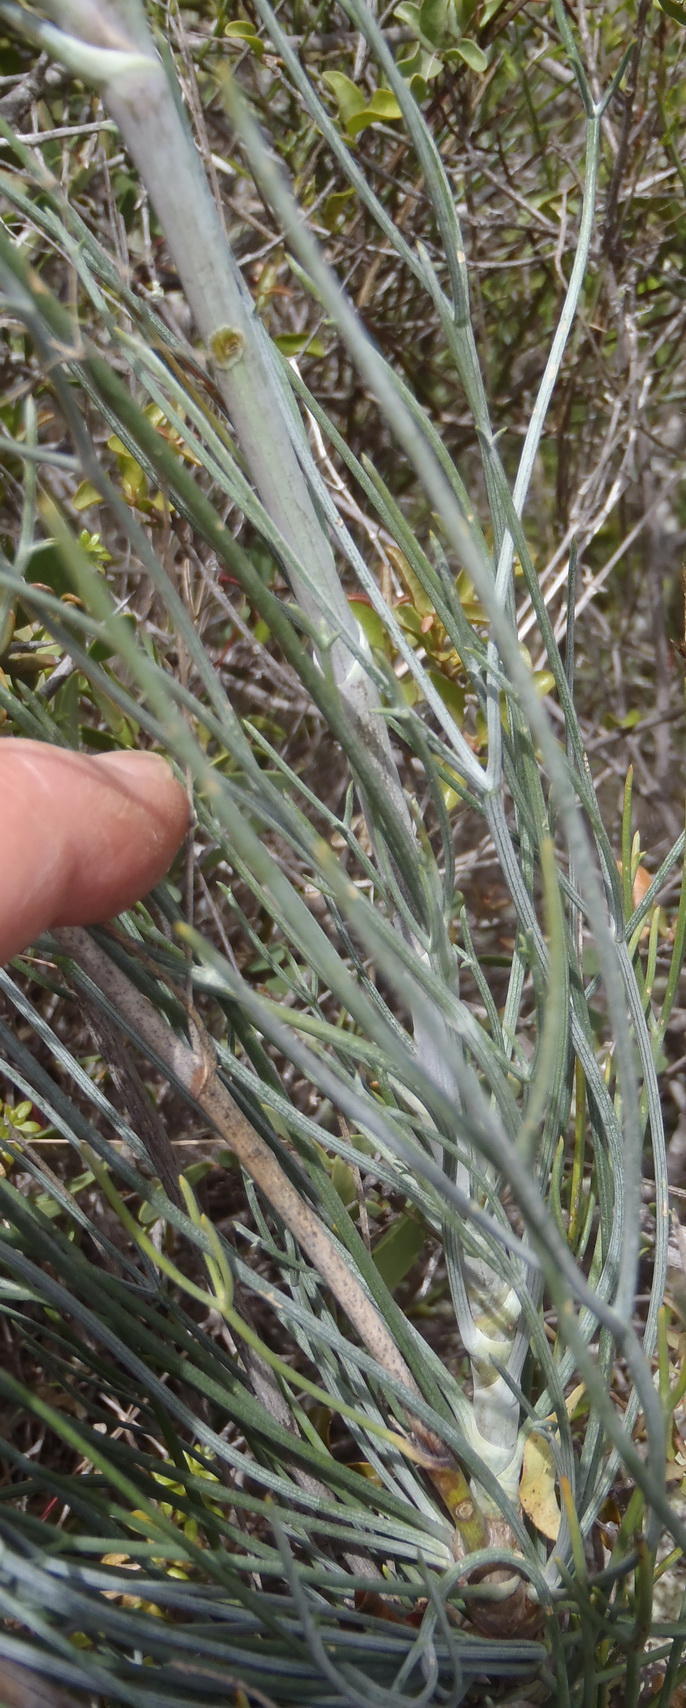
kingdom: Plantae
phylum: Tracheophyta
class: Magnoliopsida
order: Apiales
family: Apiaceae
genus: Anginon
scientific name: Anginon swellendamense
